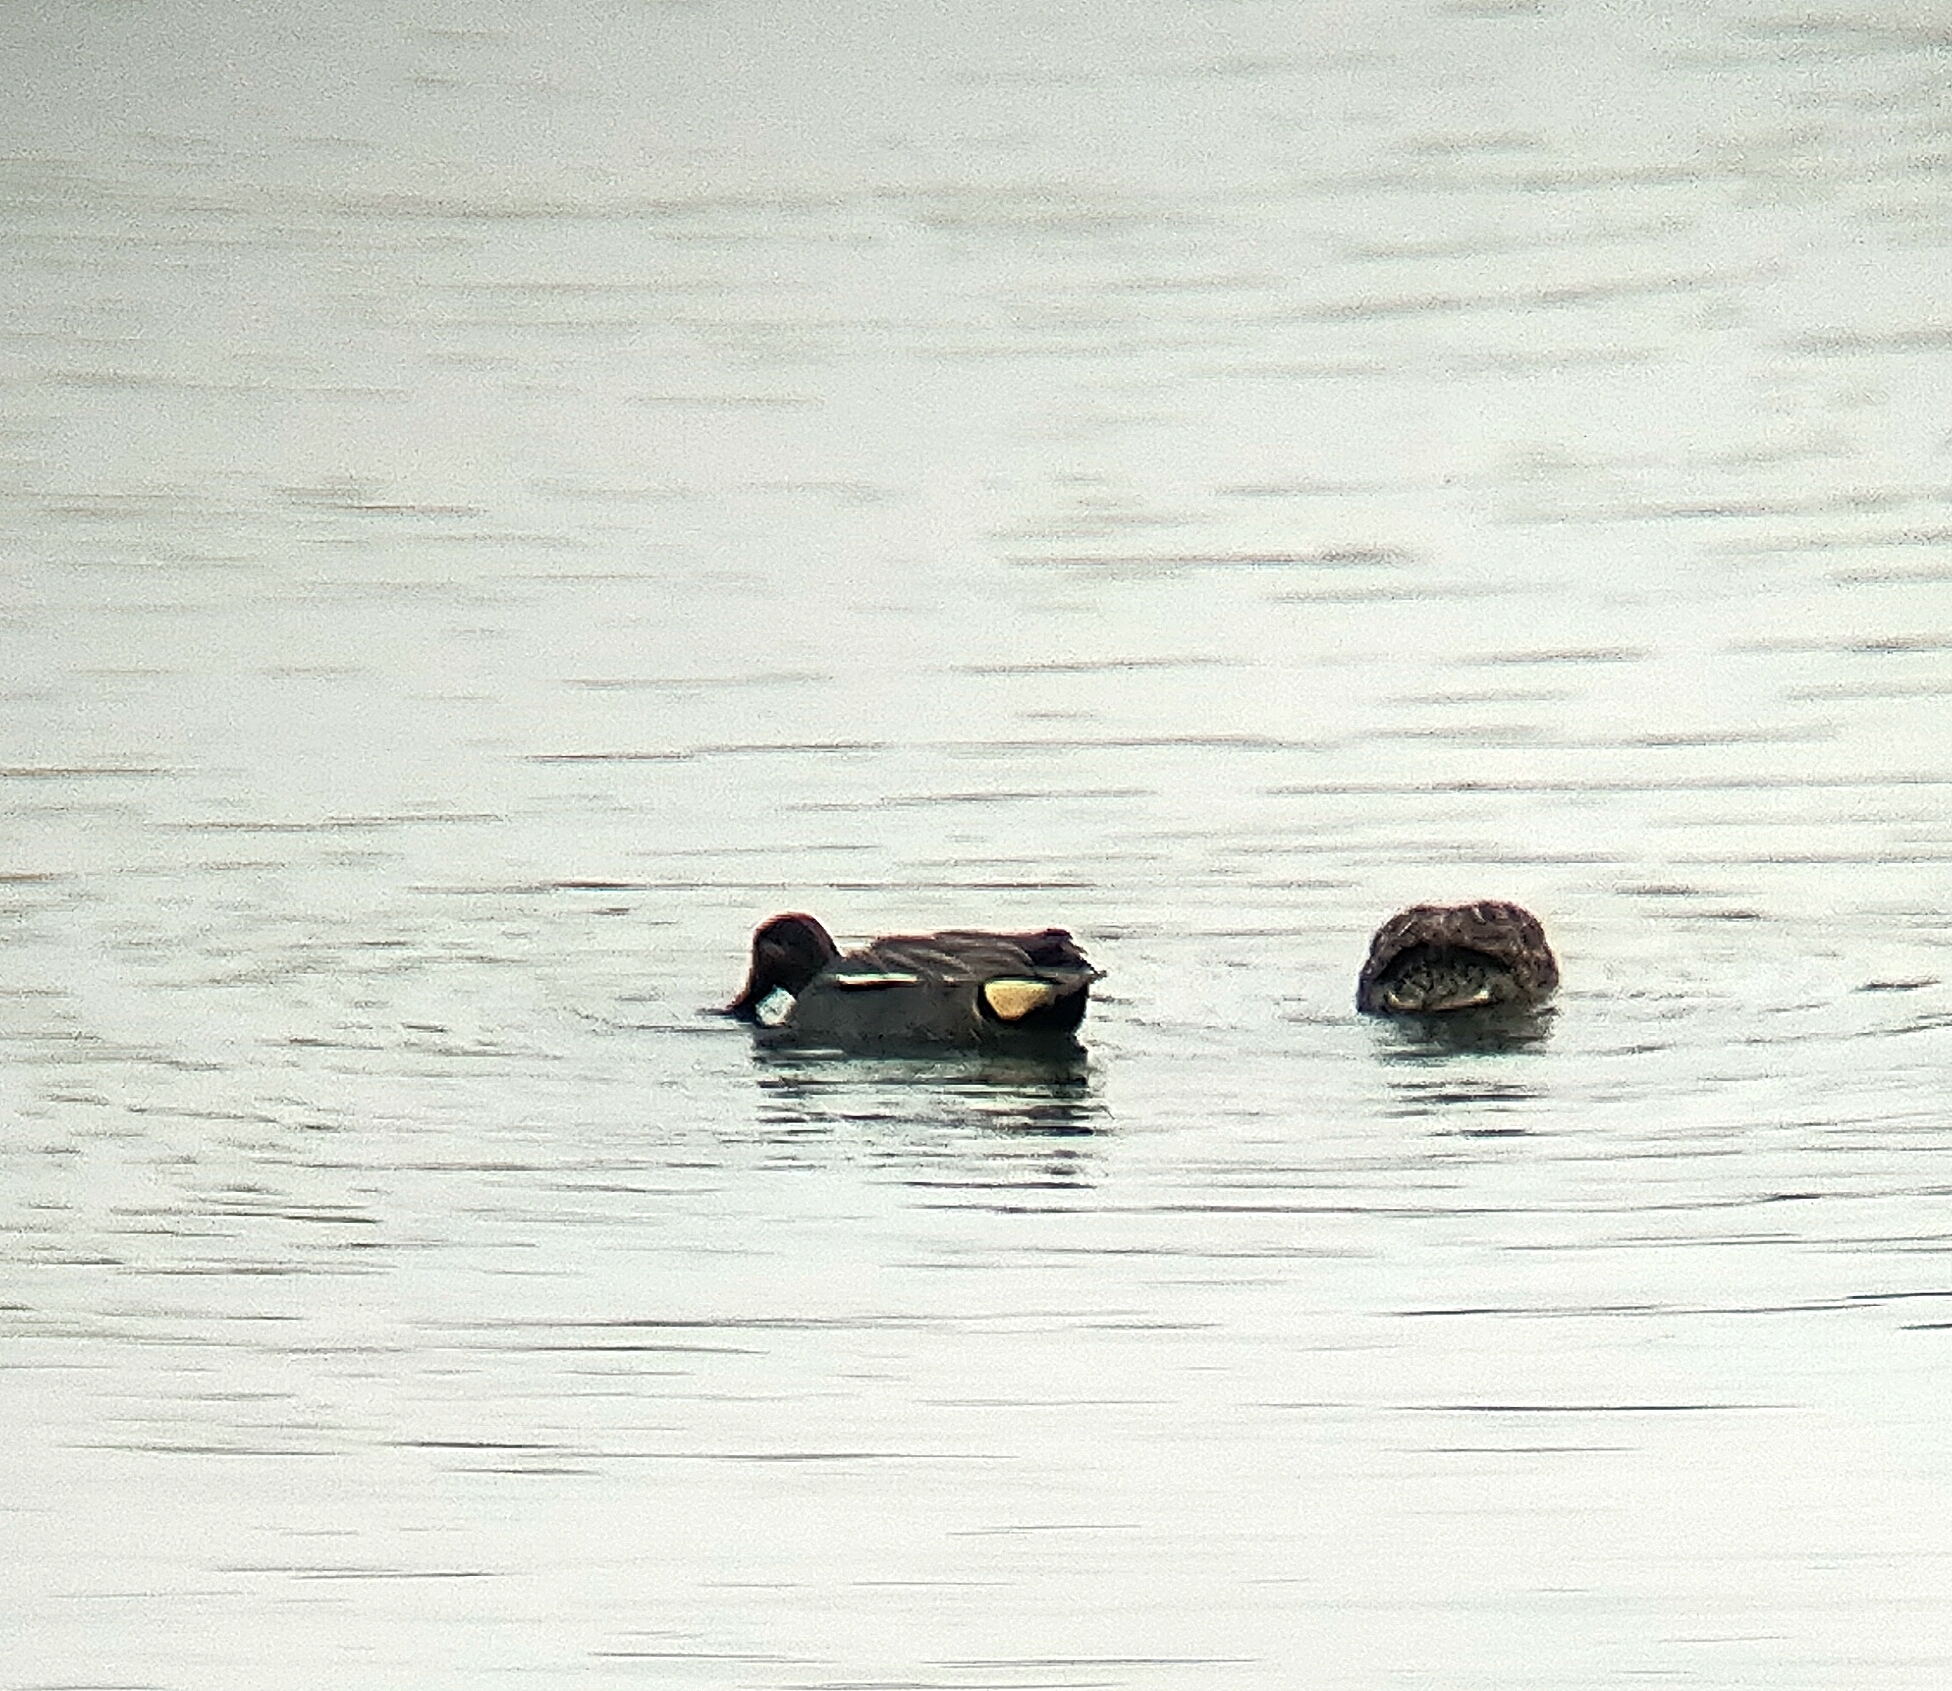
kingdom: Animalia
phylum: Chordata
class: Aves
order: Anseriformes
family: Anatidae
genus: Anas
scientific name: Anas crecca
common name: Eurasian teal
